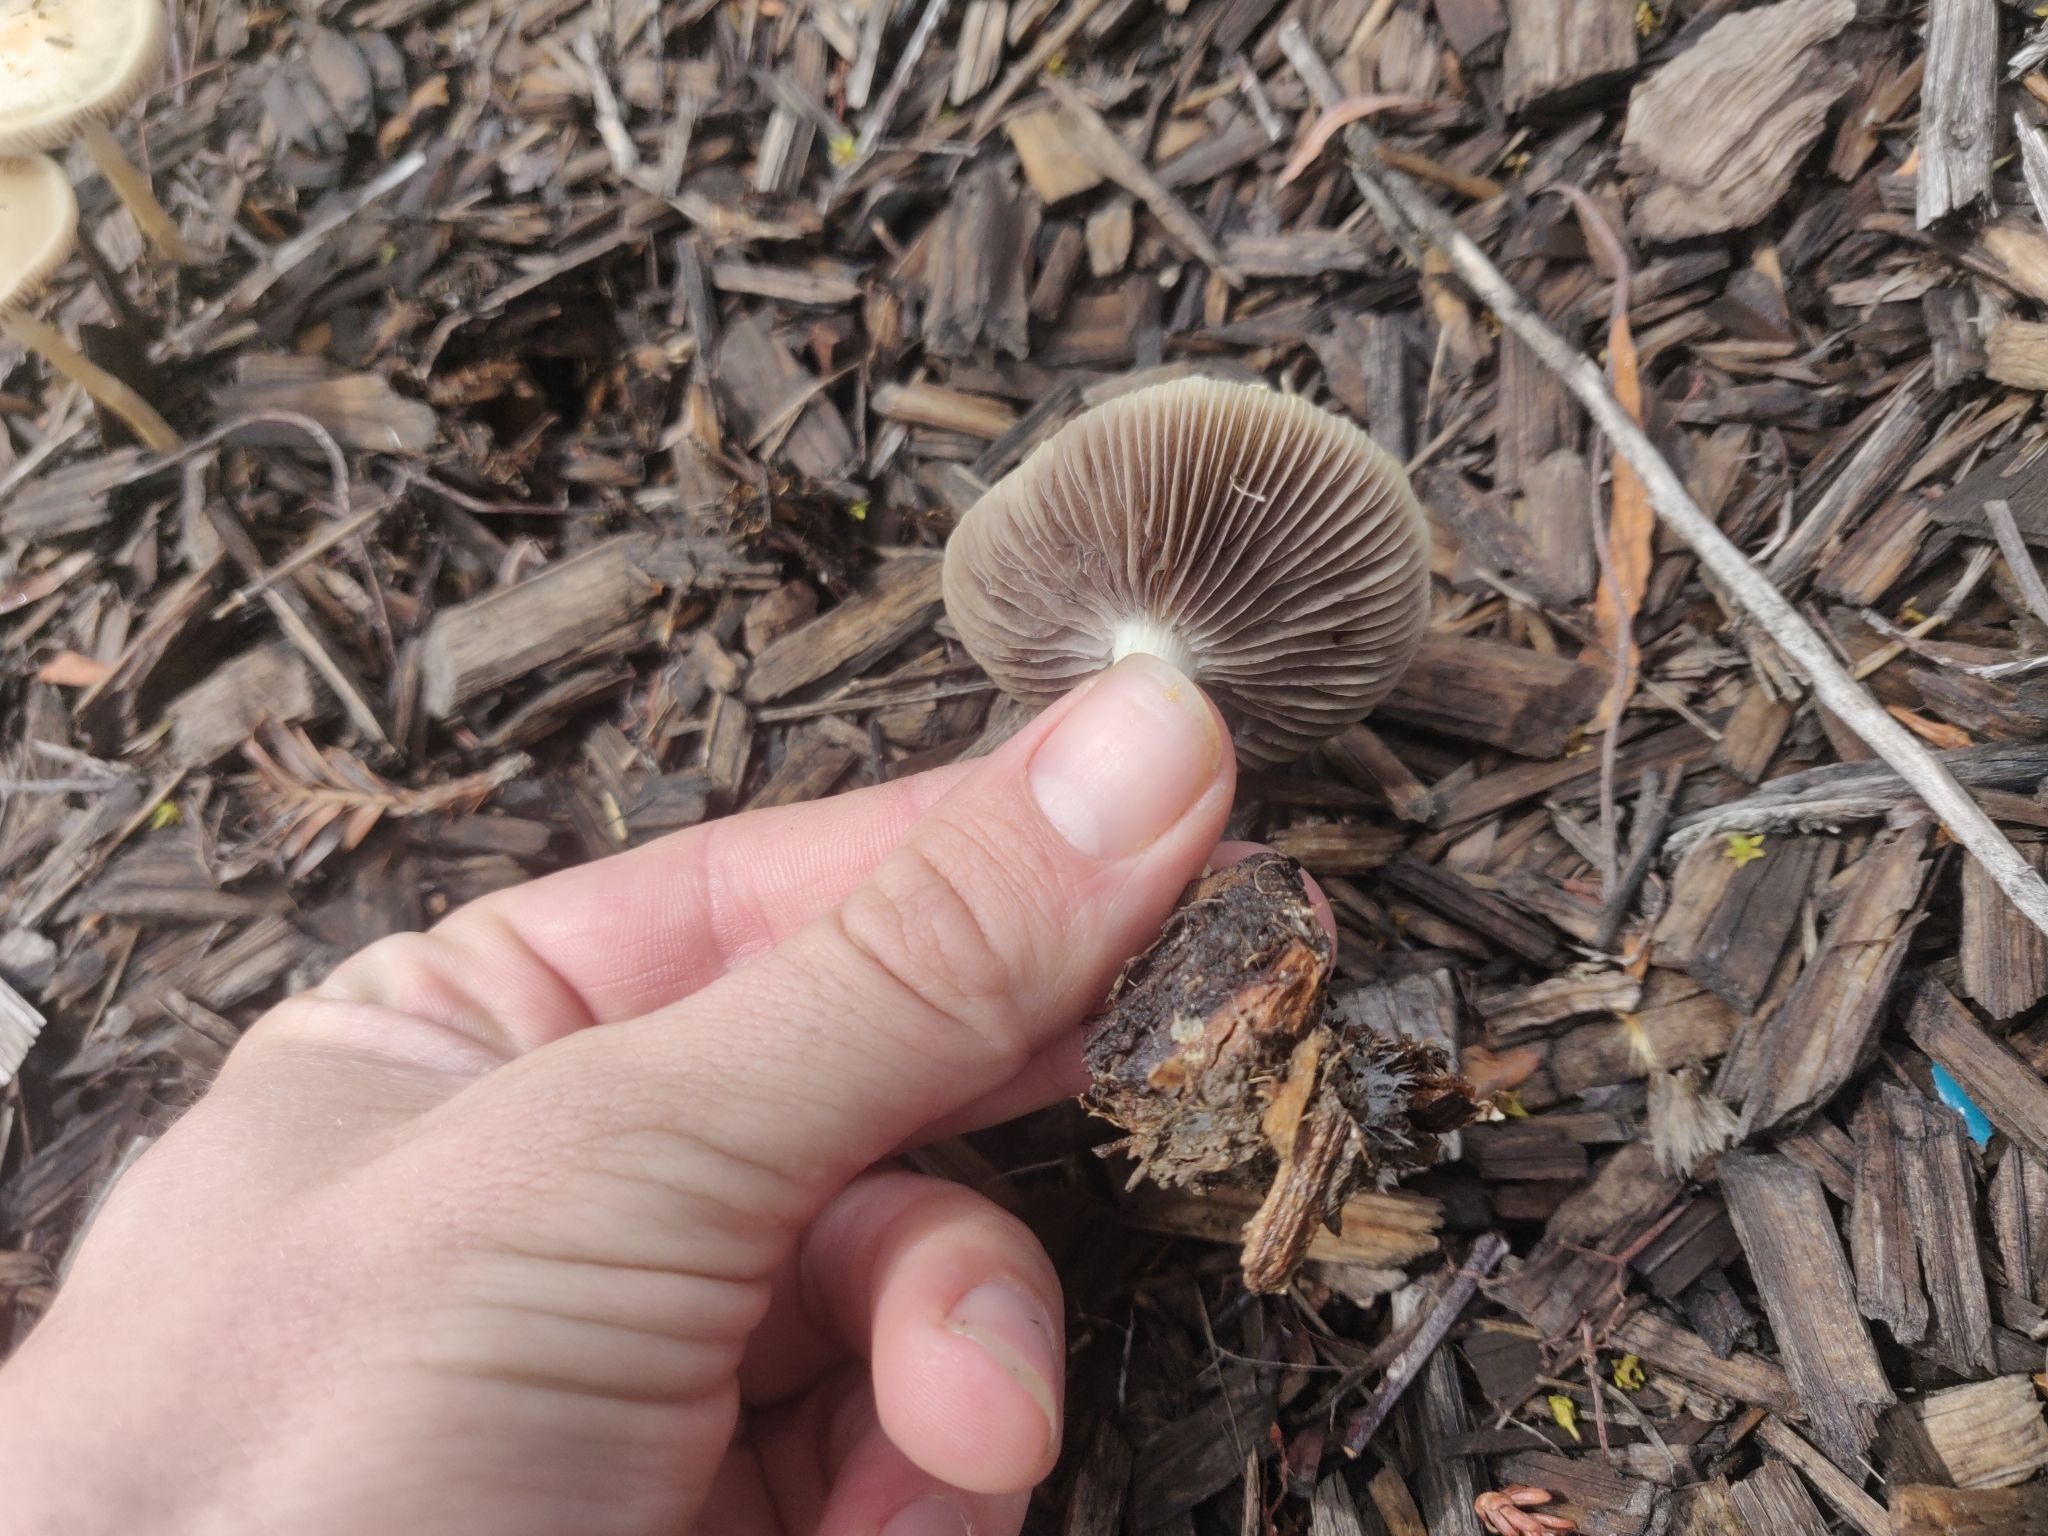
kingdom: Fungi
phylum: Basidiomycota
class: Agaricomycetes
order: Agaricales
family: Strophariaceae
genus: Leratiomyces
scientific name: Leratiomyces percevalii
